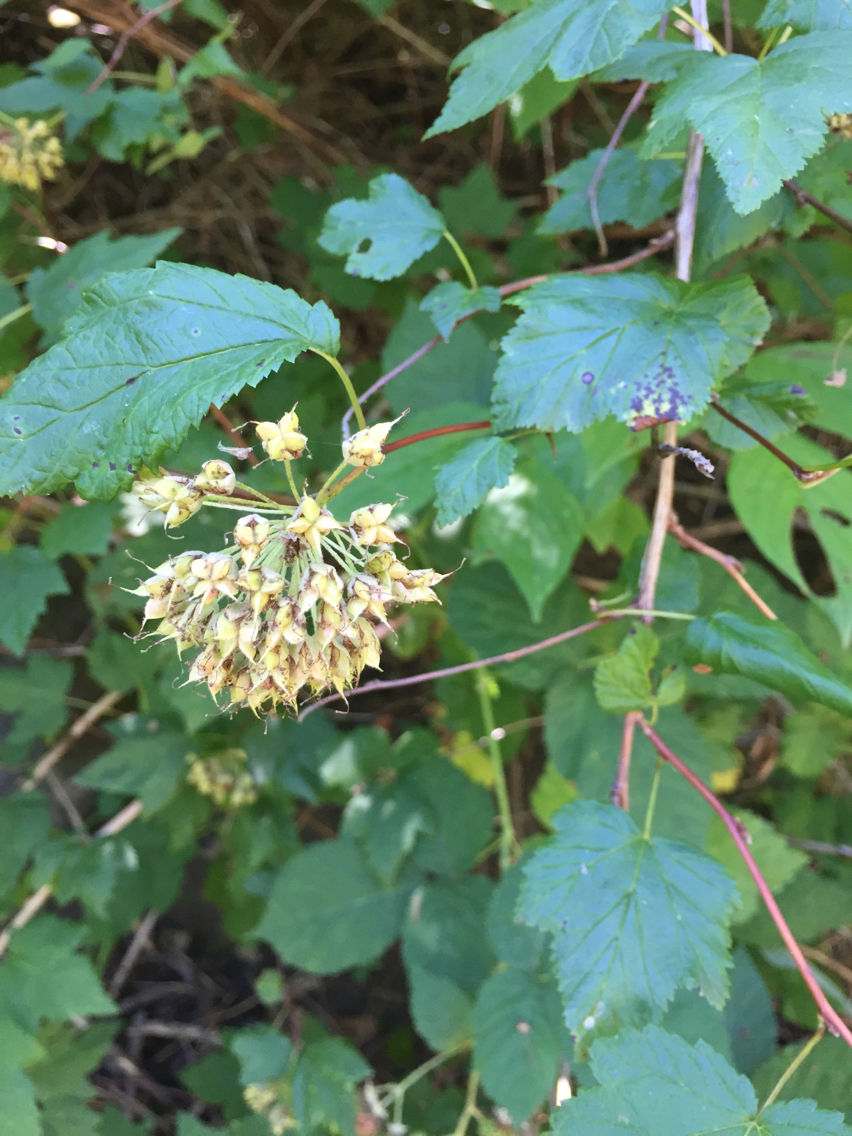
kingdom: Plantae
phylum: Tracheophyta
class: Magnoliopsida
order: Rosales
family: Rosaceae
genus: Physocarpus
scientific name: Physocarpus capitatus
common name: Pacific ninebark
